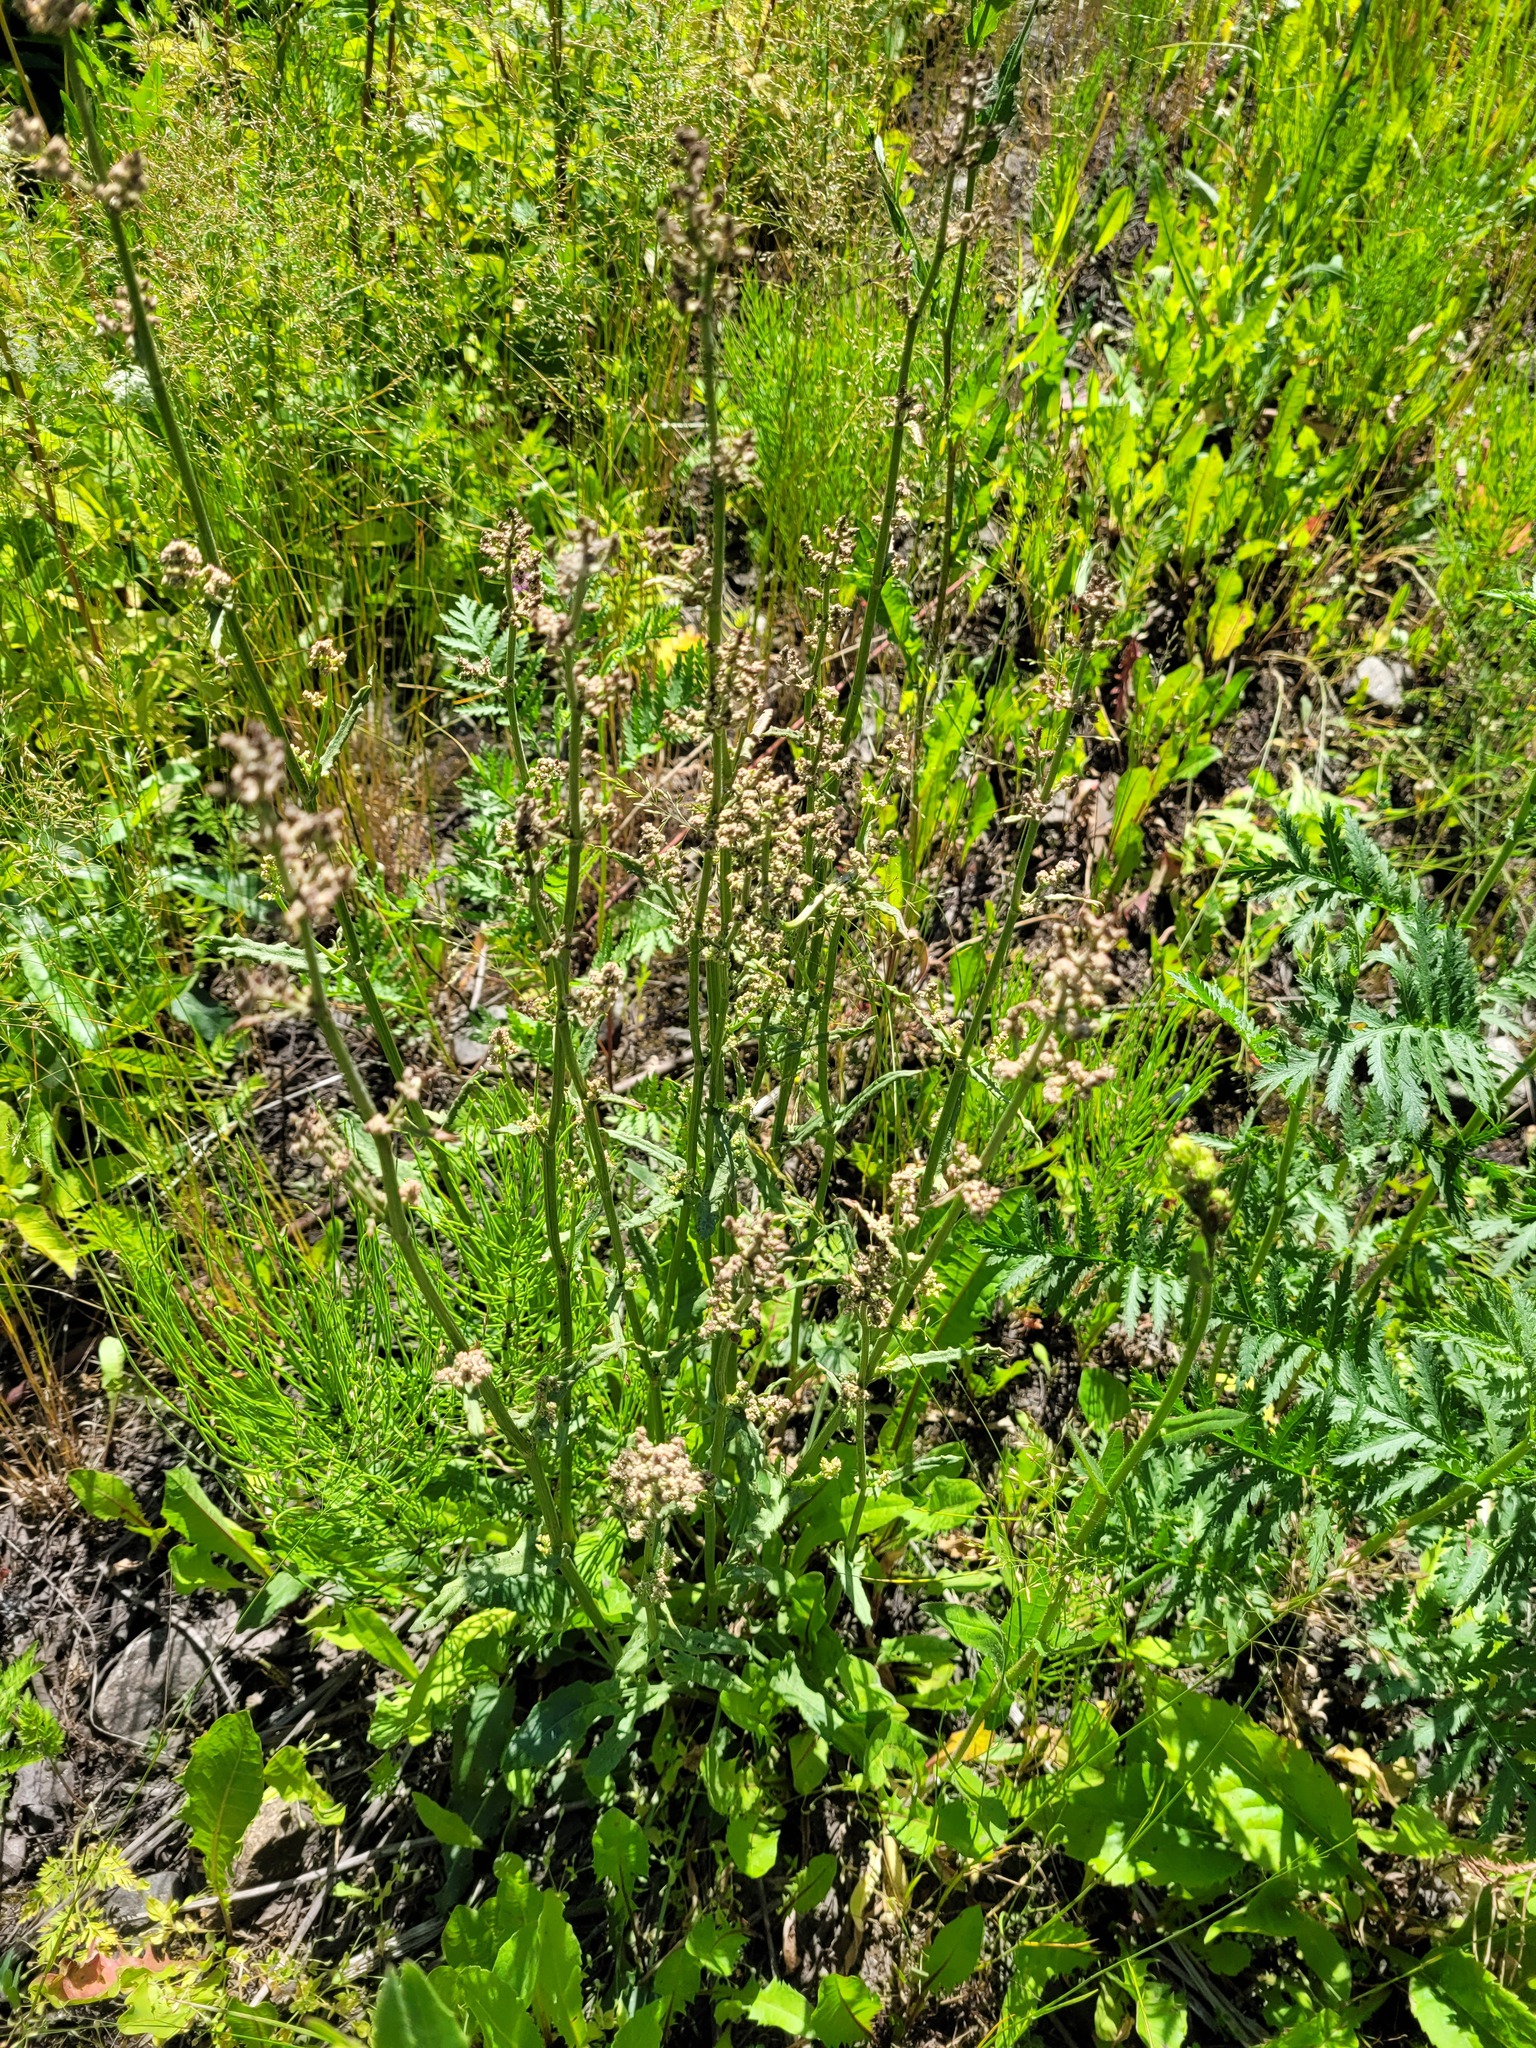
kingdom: Plantae
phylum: Tracheophyta
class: Magnoliopsida
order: Caryophyllales
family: Polygonaceae
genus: Rumex
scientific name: Rumex thyrsiflorus
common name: Garden sorrel
